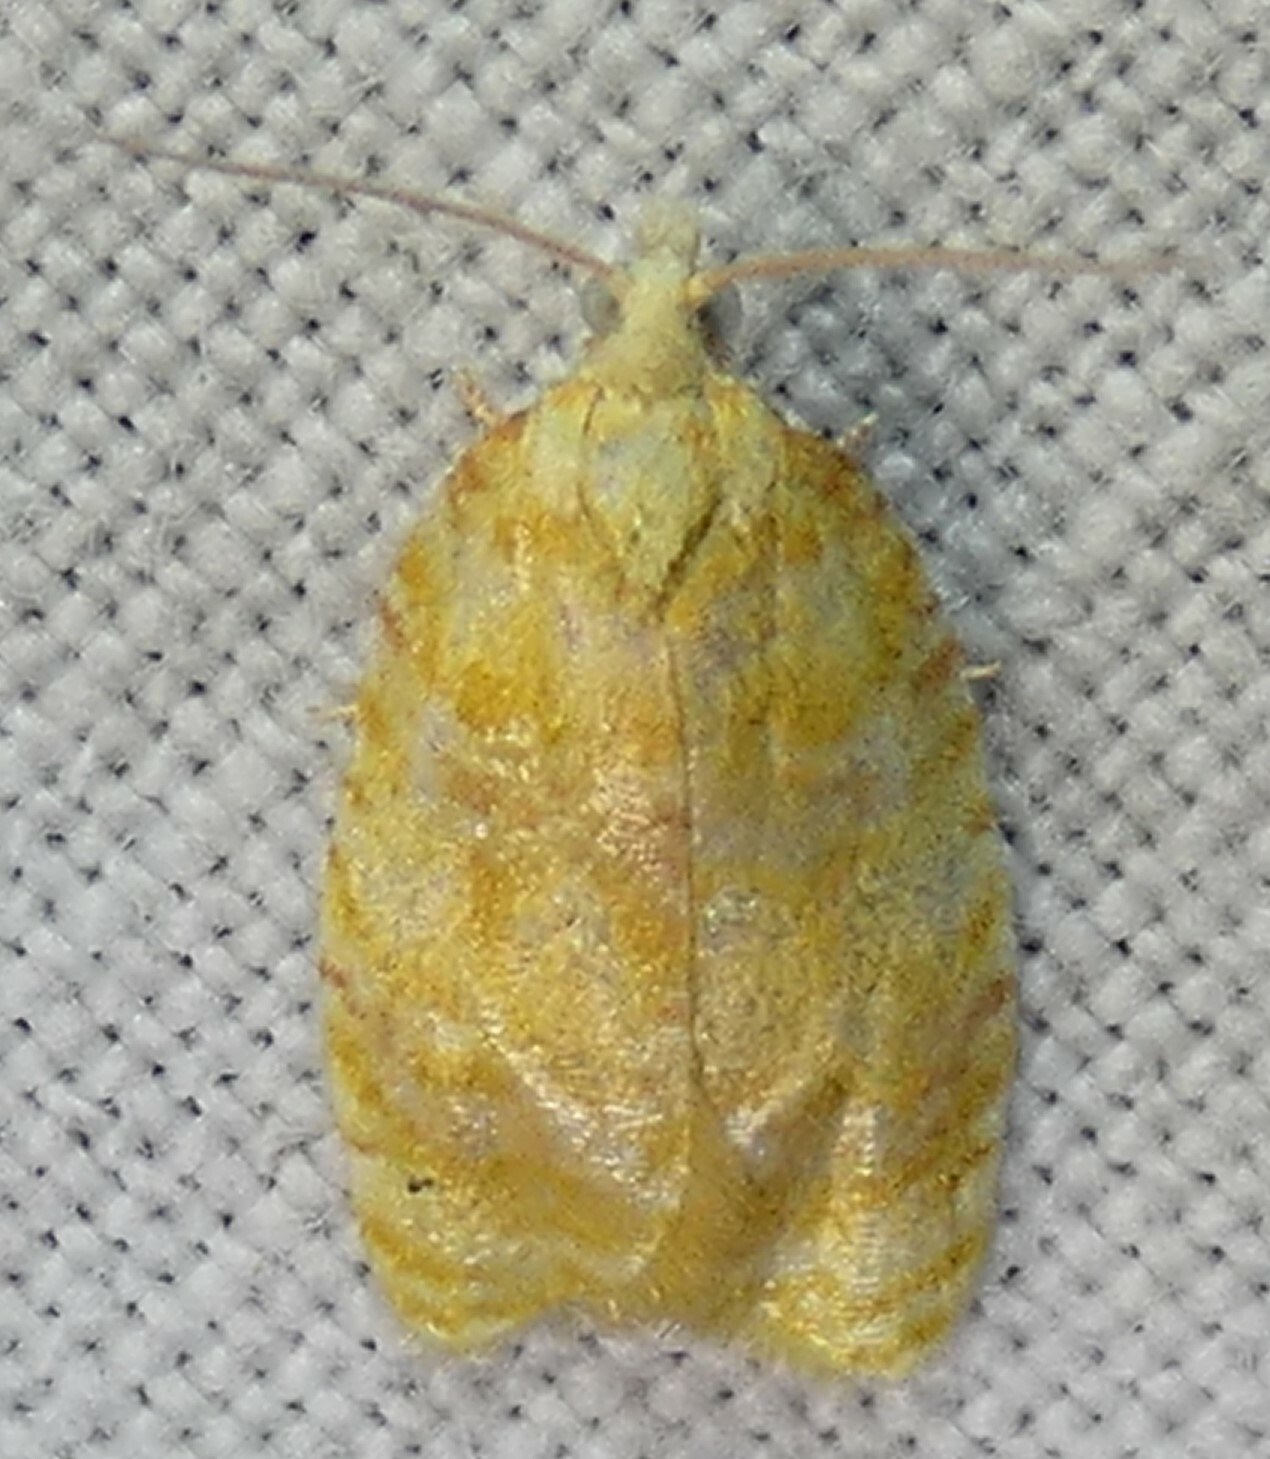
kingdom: Animalia
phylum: Arthropoda
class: Insecta
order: Lepidoptera
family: Tortricidae
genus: Acleris
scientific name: Acleris semipurpurana
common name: Oak leaftier moth
